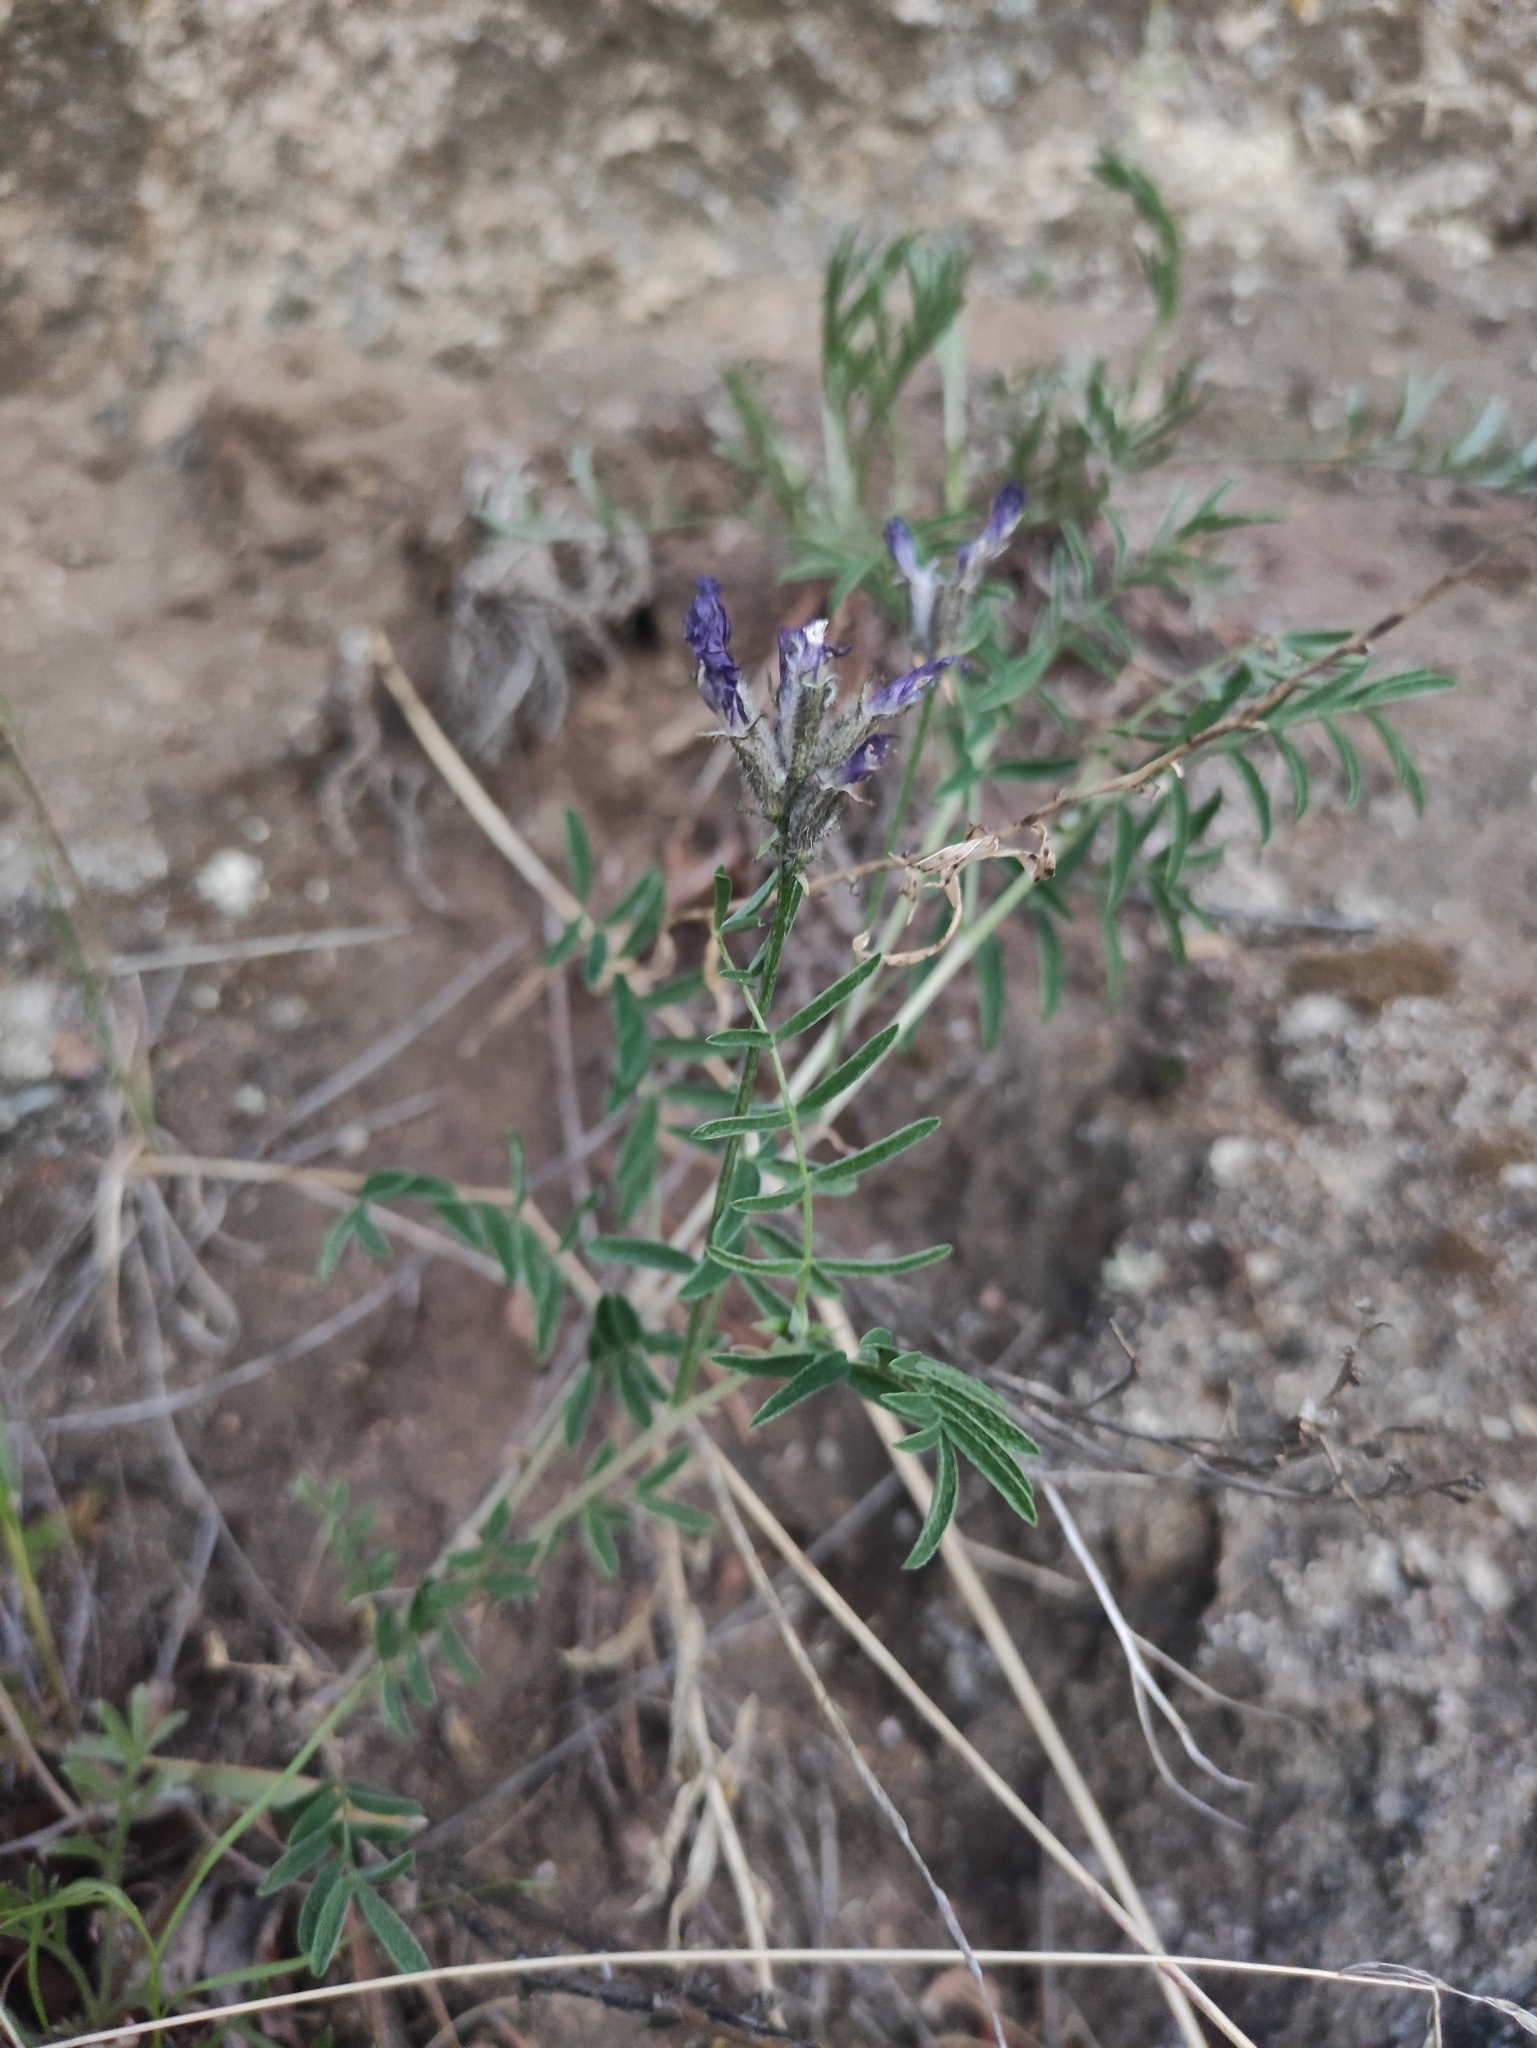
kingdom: Plantae
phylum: Tracheophyta
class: Magnoliopsida
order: Fabales
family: Fabaceae
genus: Astragalus
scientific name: Astragalus syriacus
